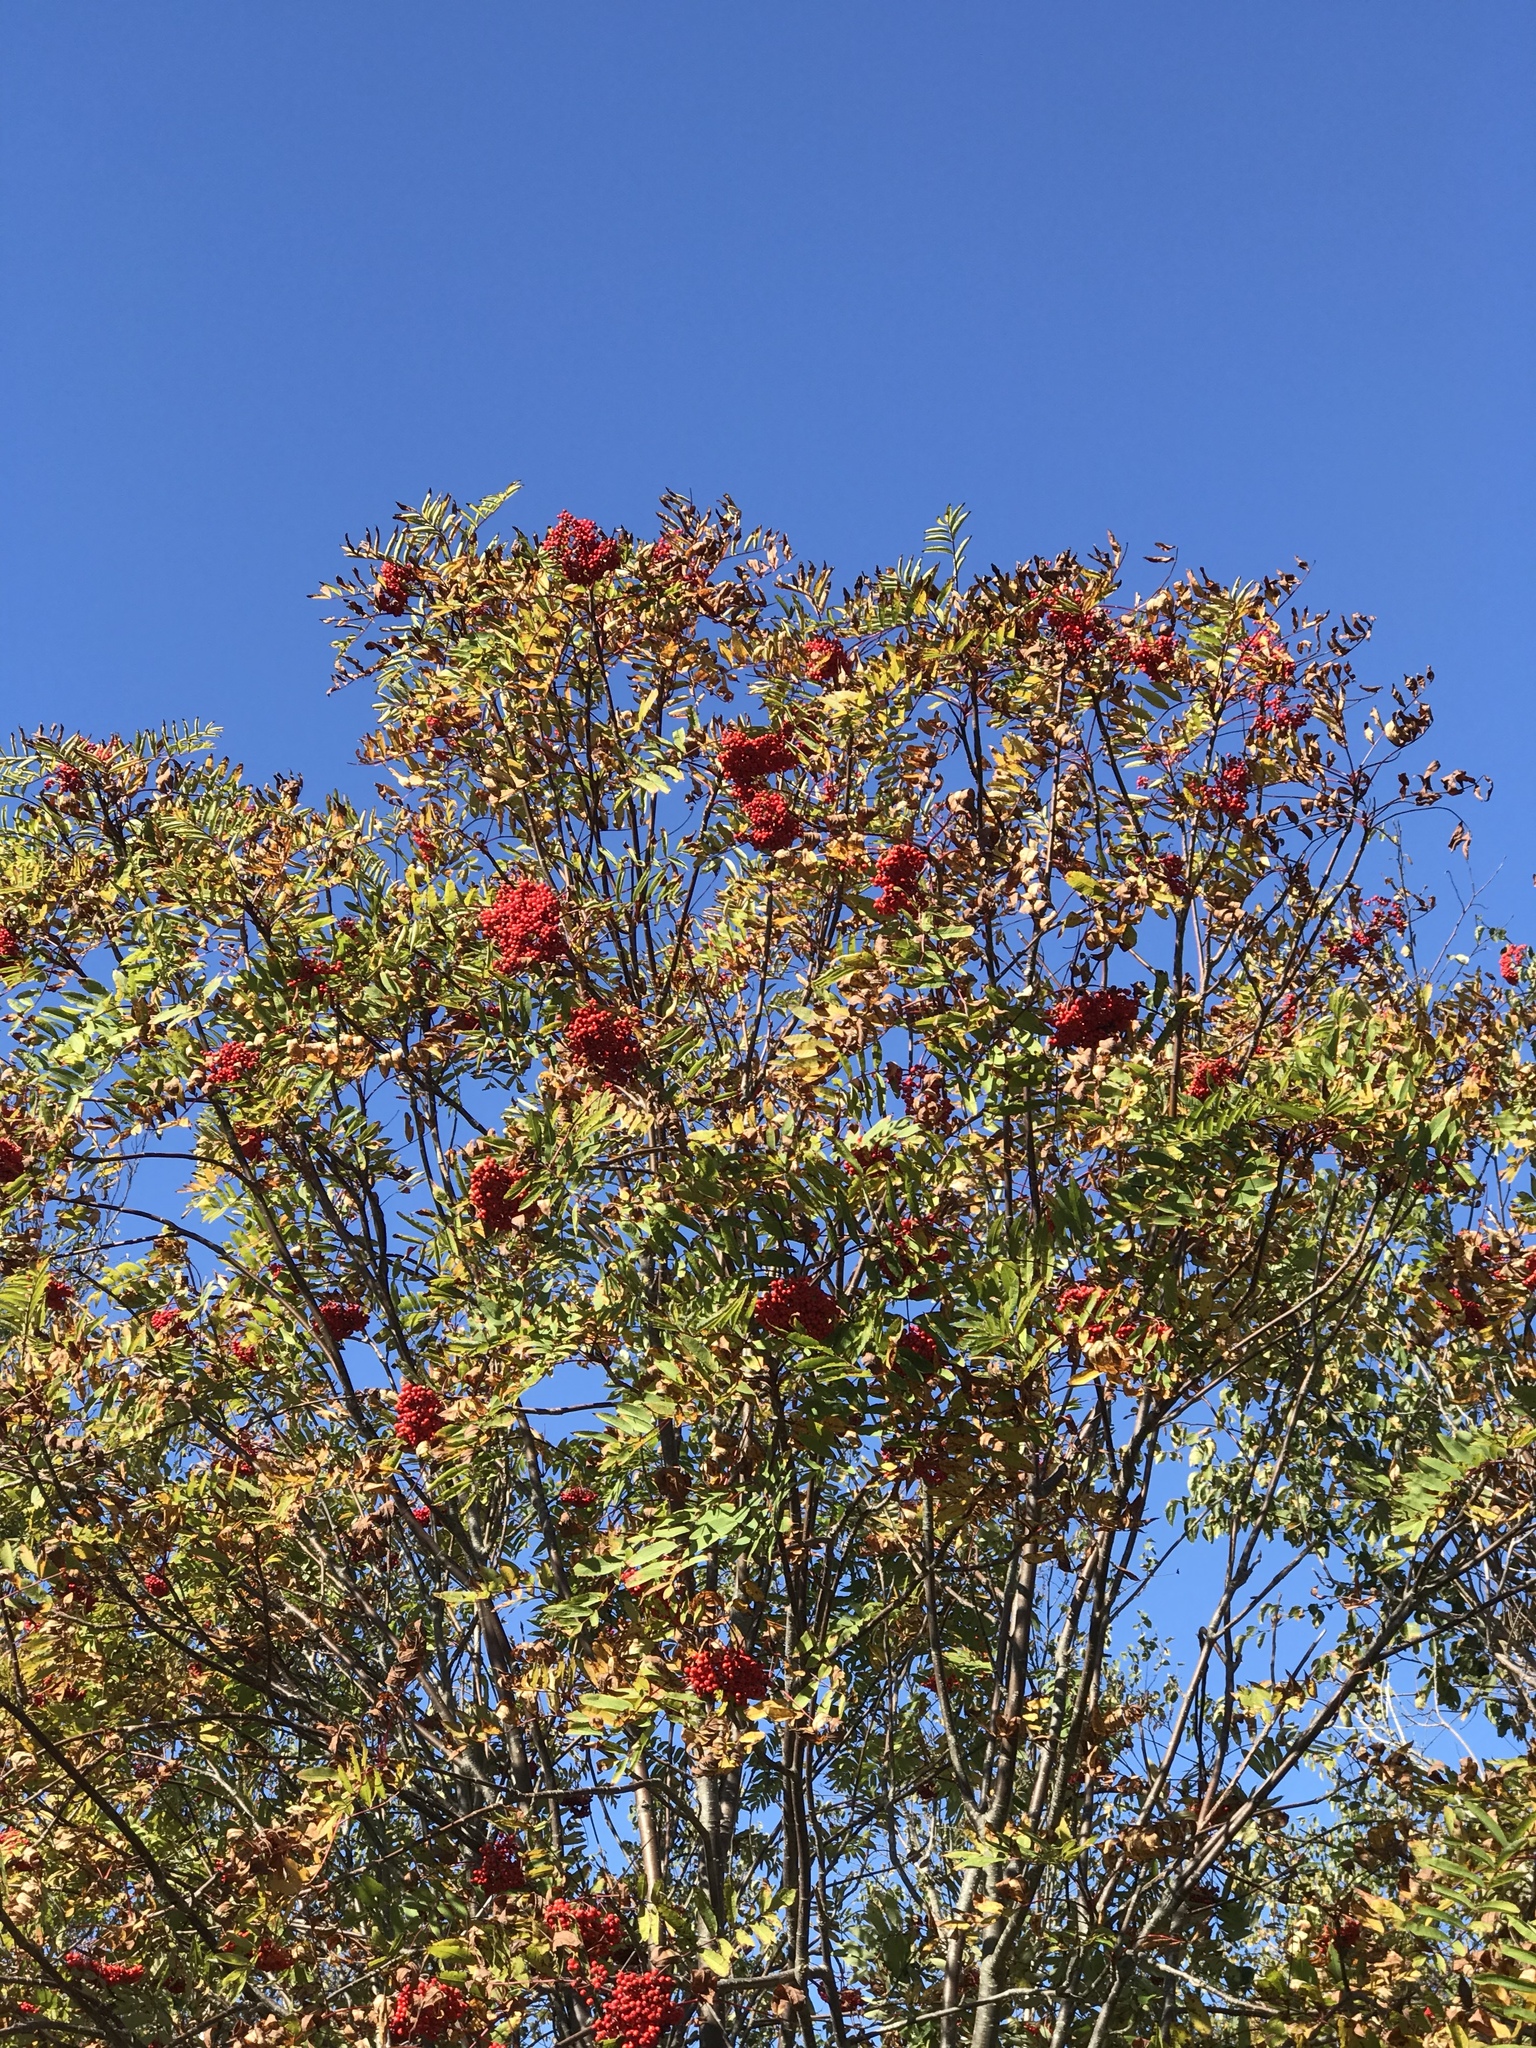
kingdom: Plantae
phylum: Tracheophyta
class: Magnoliopsida
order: Rosales
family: Rosaceae
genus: Sorbus
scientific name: Sorbus americana
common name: American mountain-ash
